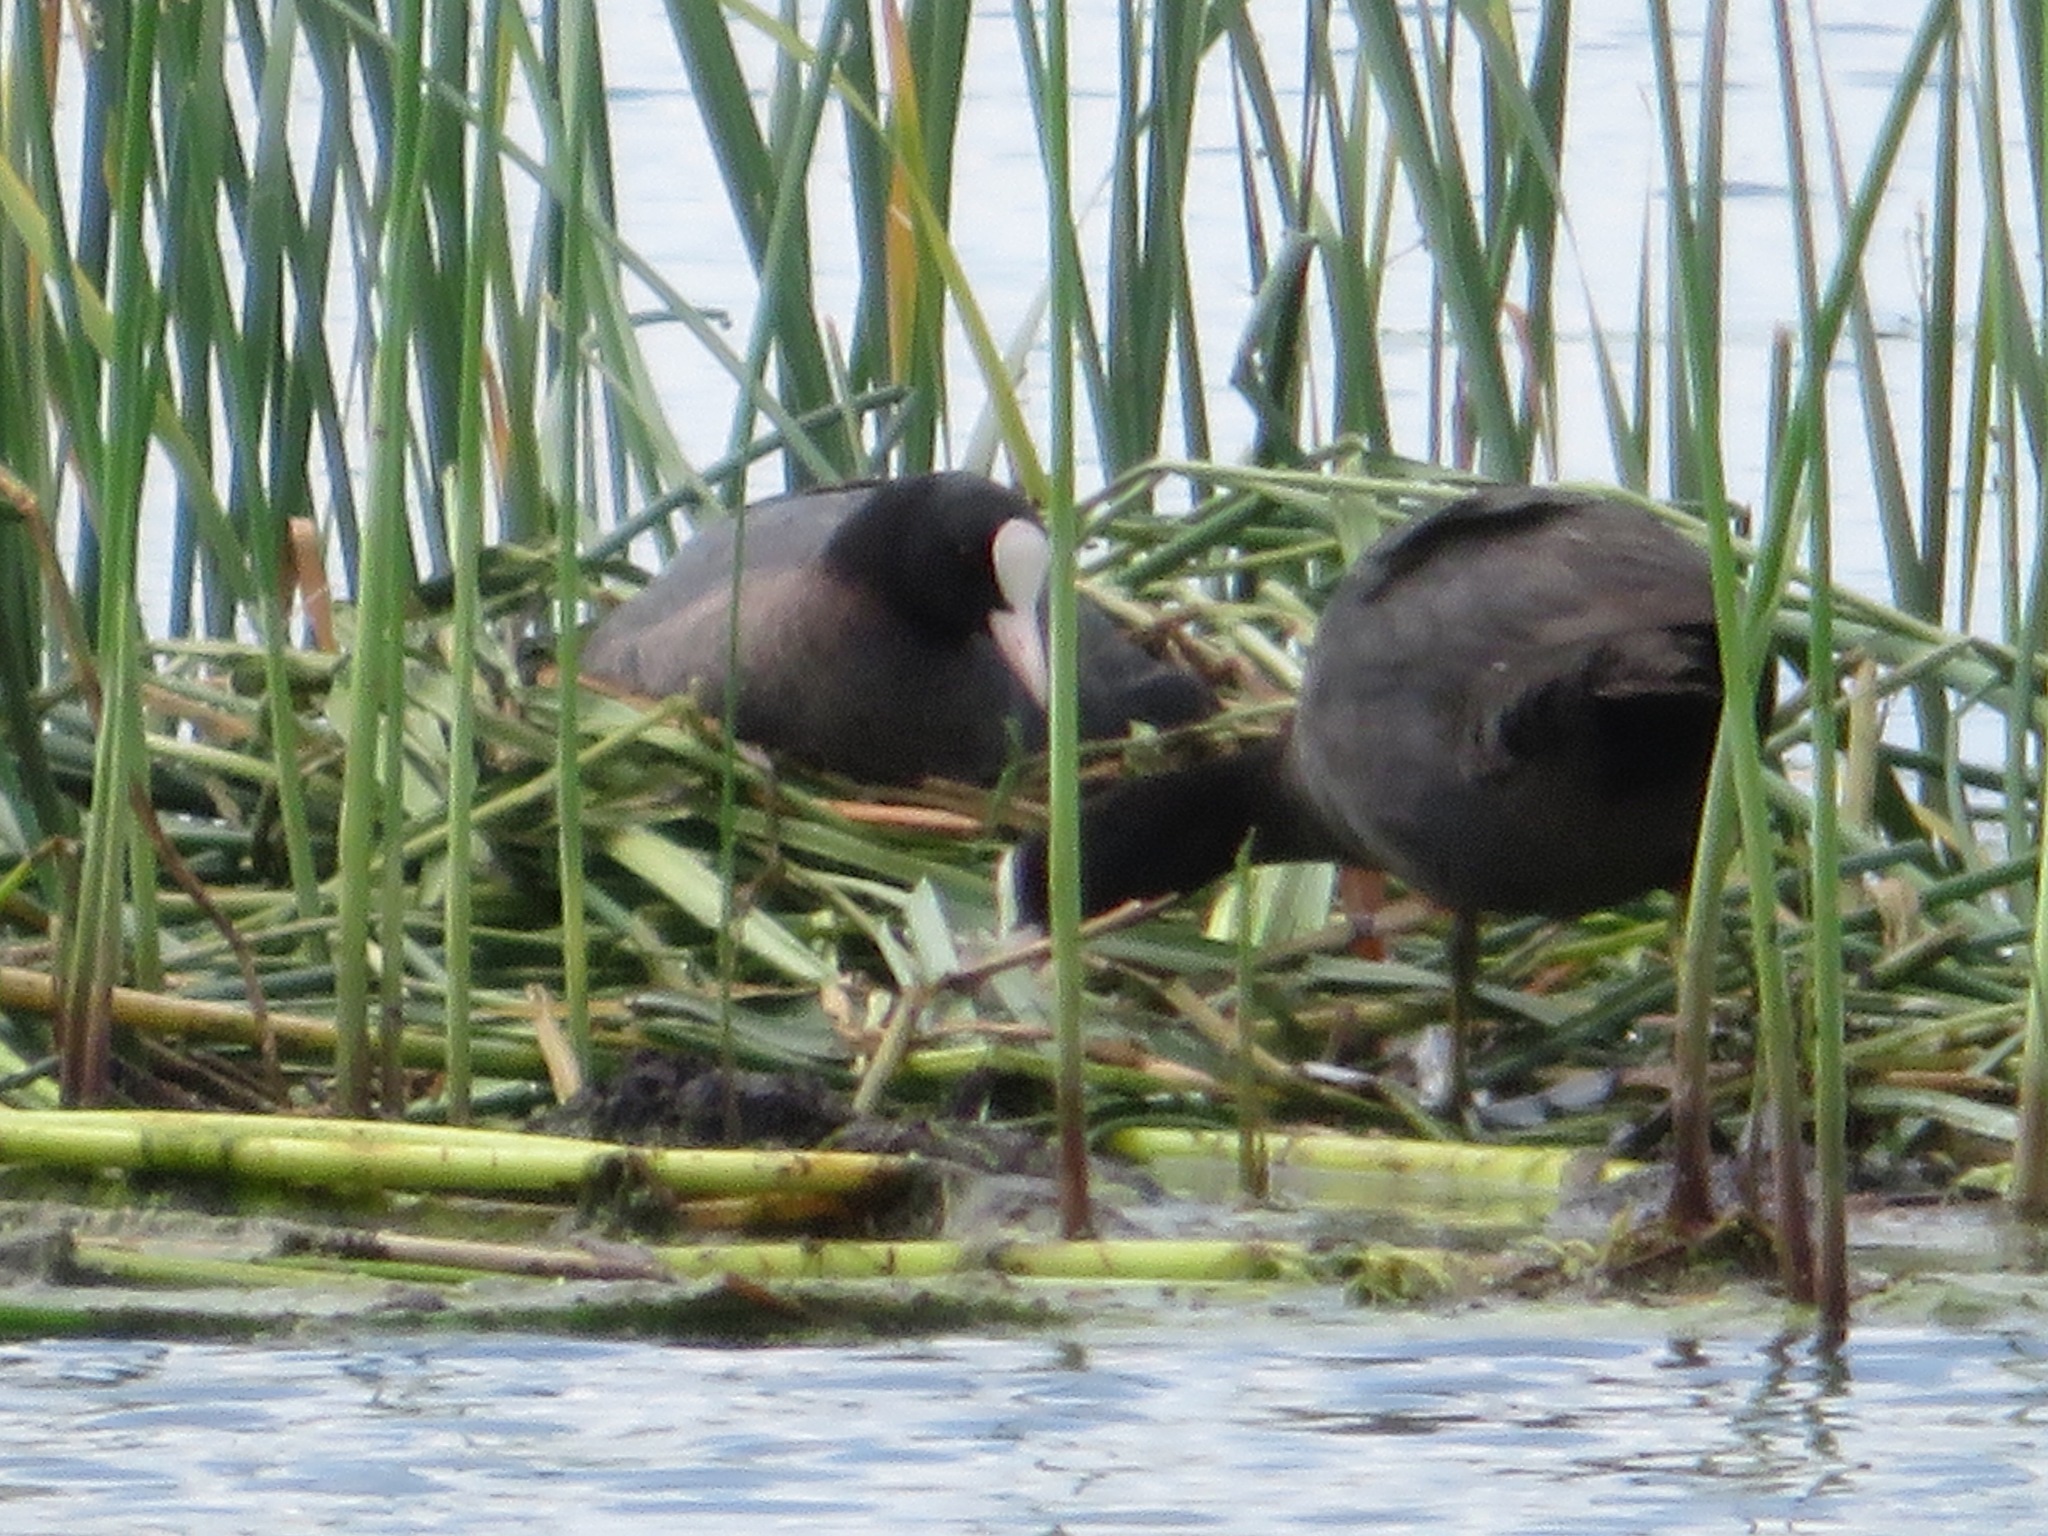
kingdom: Animalia
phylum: Chordata
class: Aves
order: Gruiformes
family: Rallidae
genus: Fulica
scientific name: Fulica atra
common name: Eurasian coot
